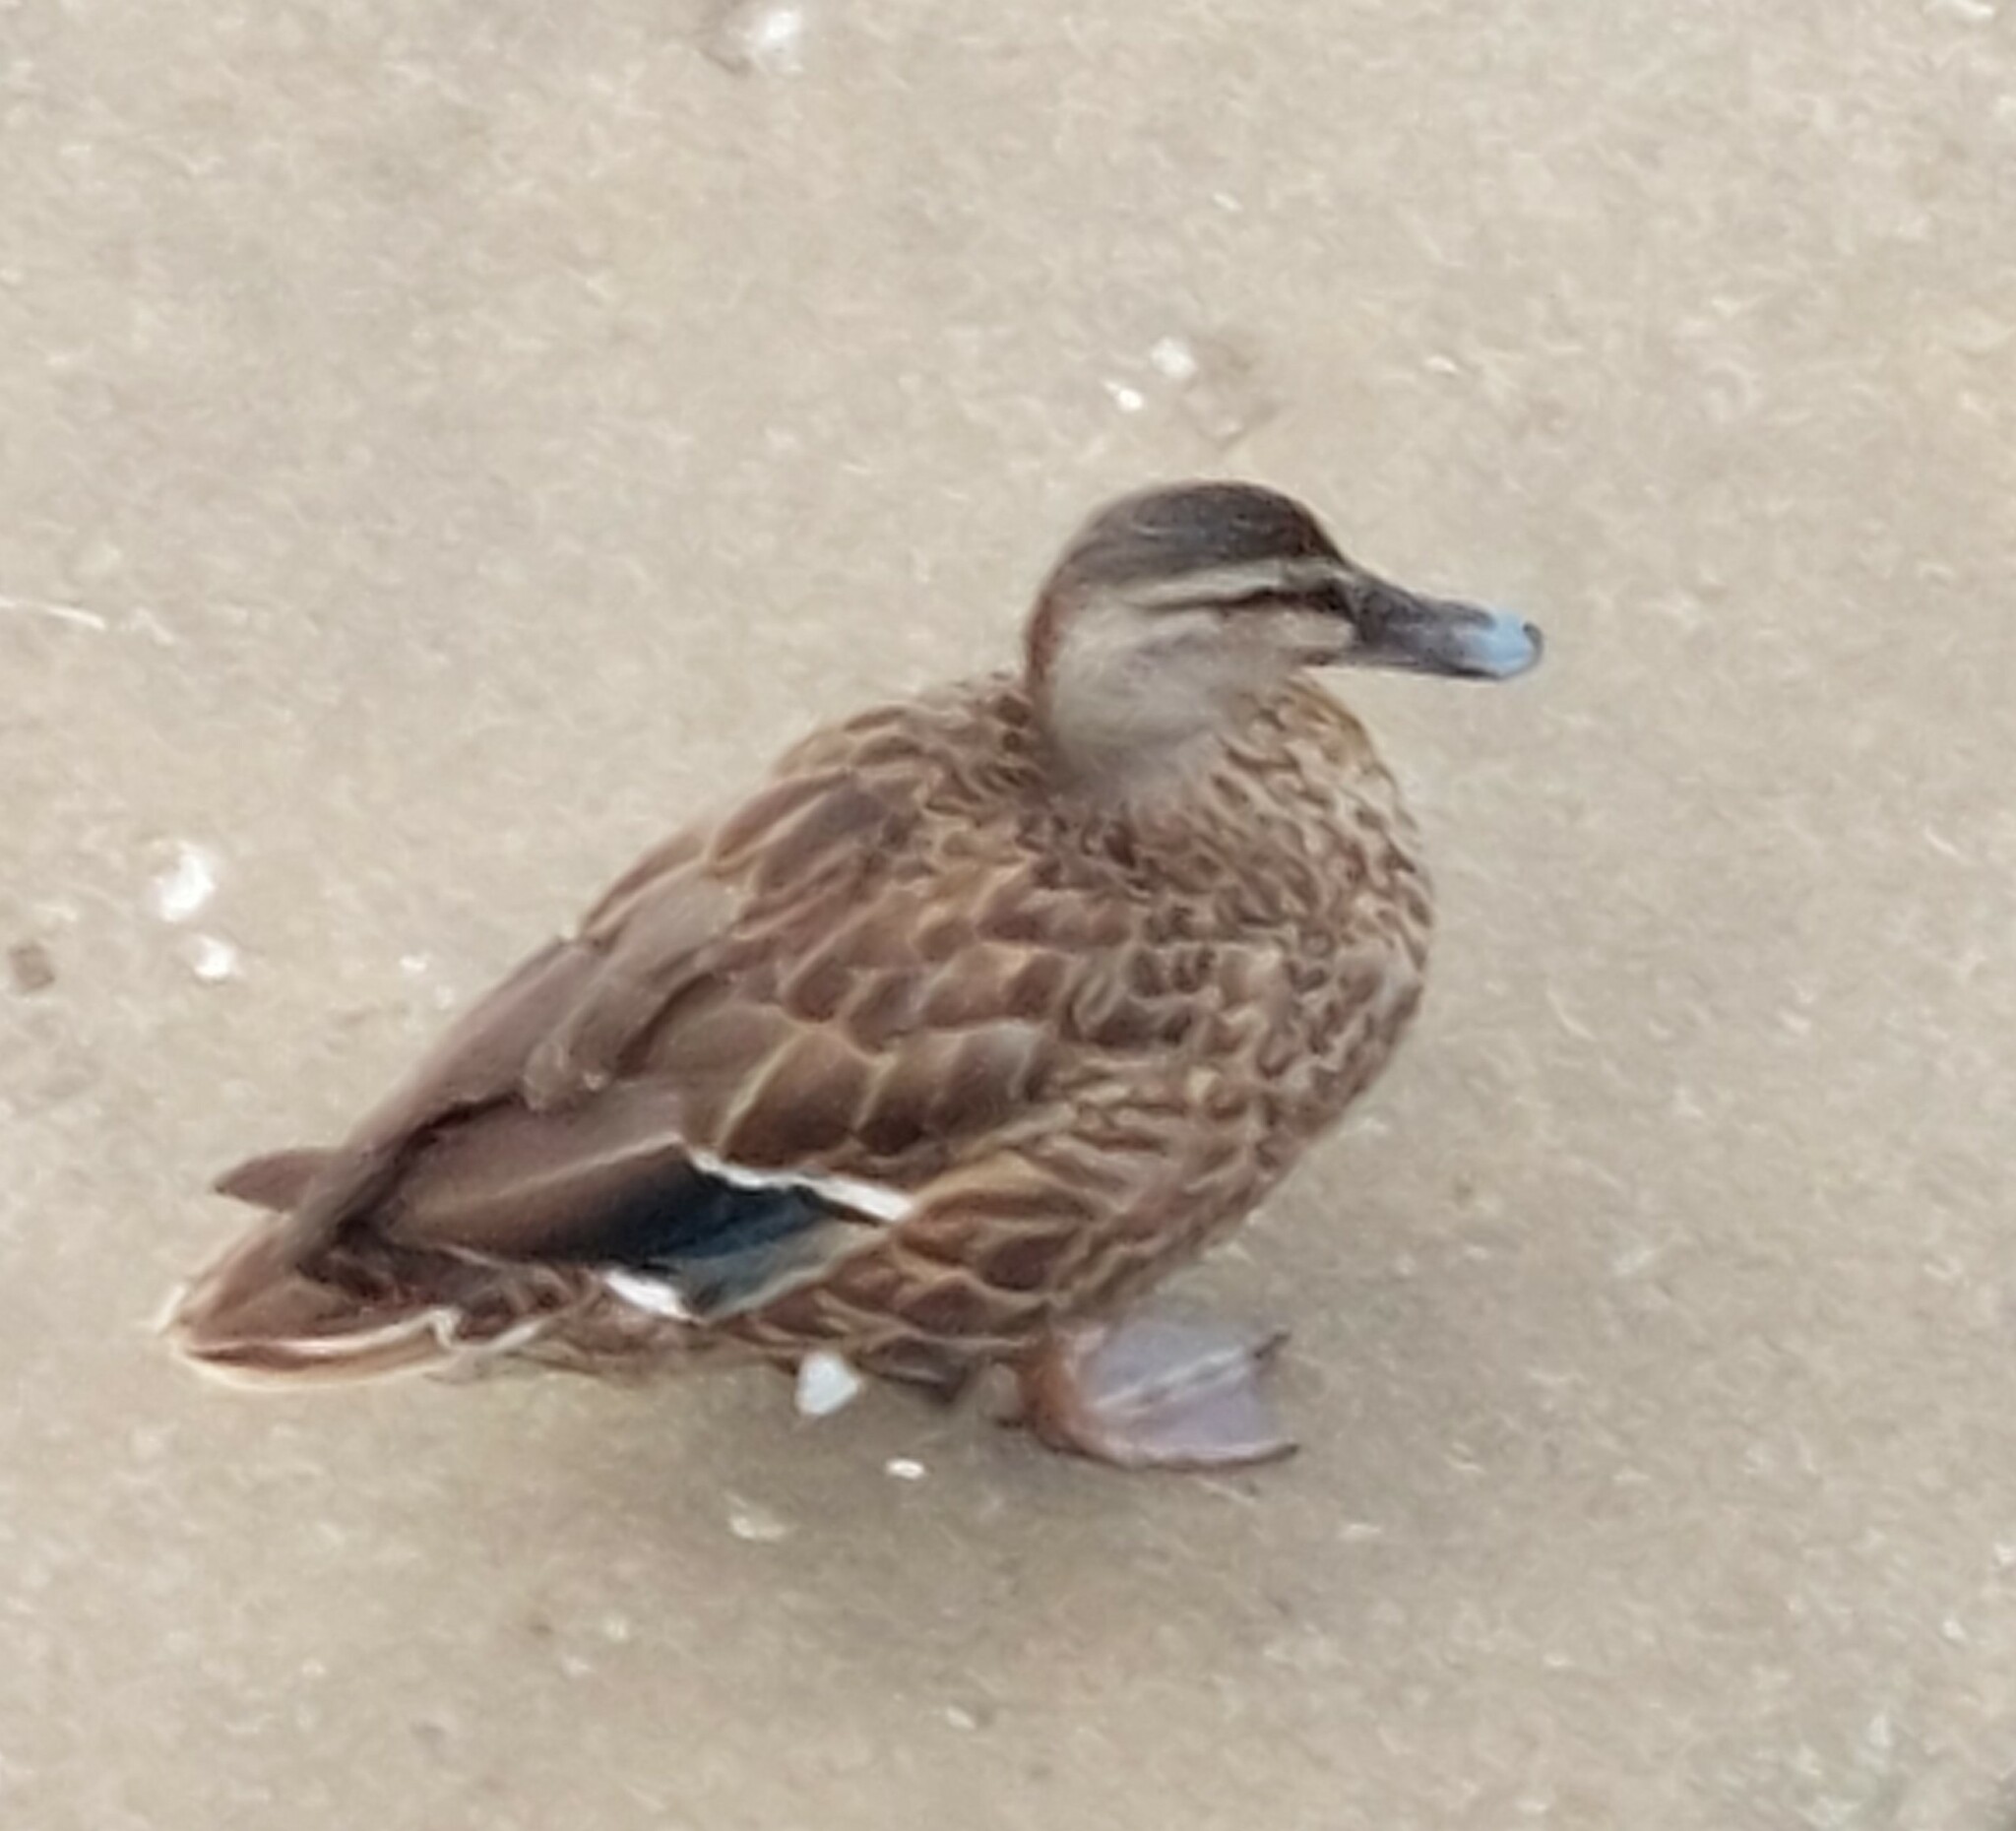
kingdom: Animalia
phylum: Chordata
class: Aves
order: Anseriformes
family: Anatidae
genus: Anas
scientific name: Anas platyrhynchos
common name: Mallard
